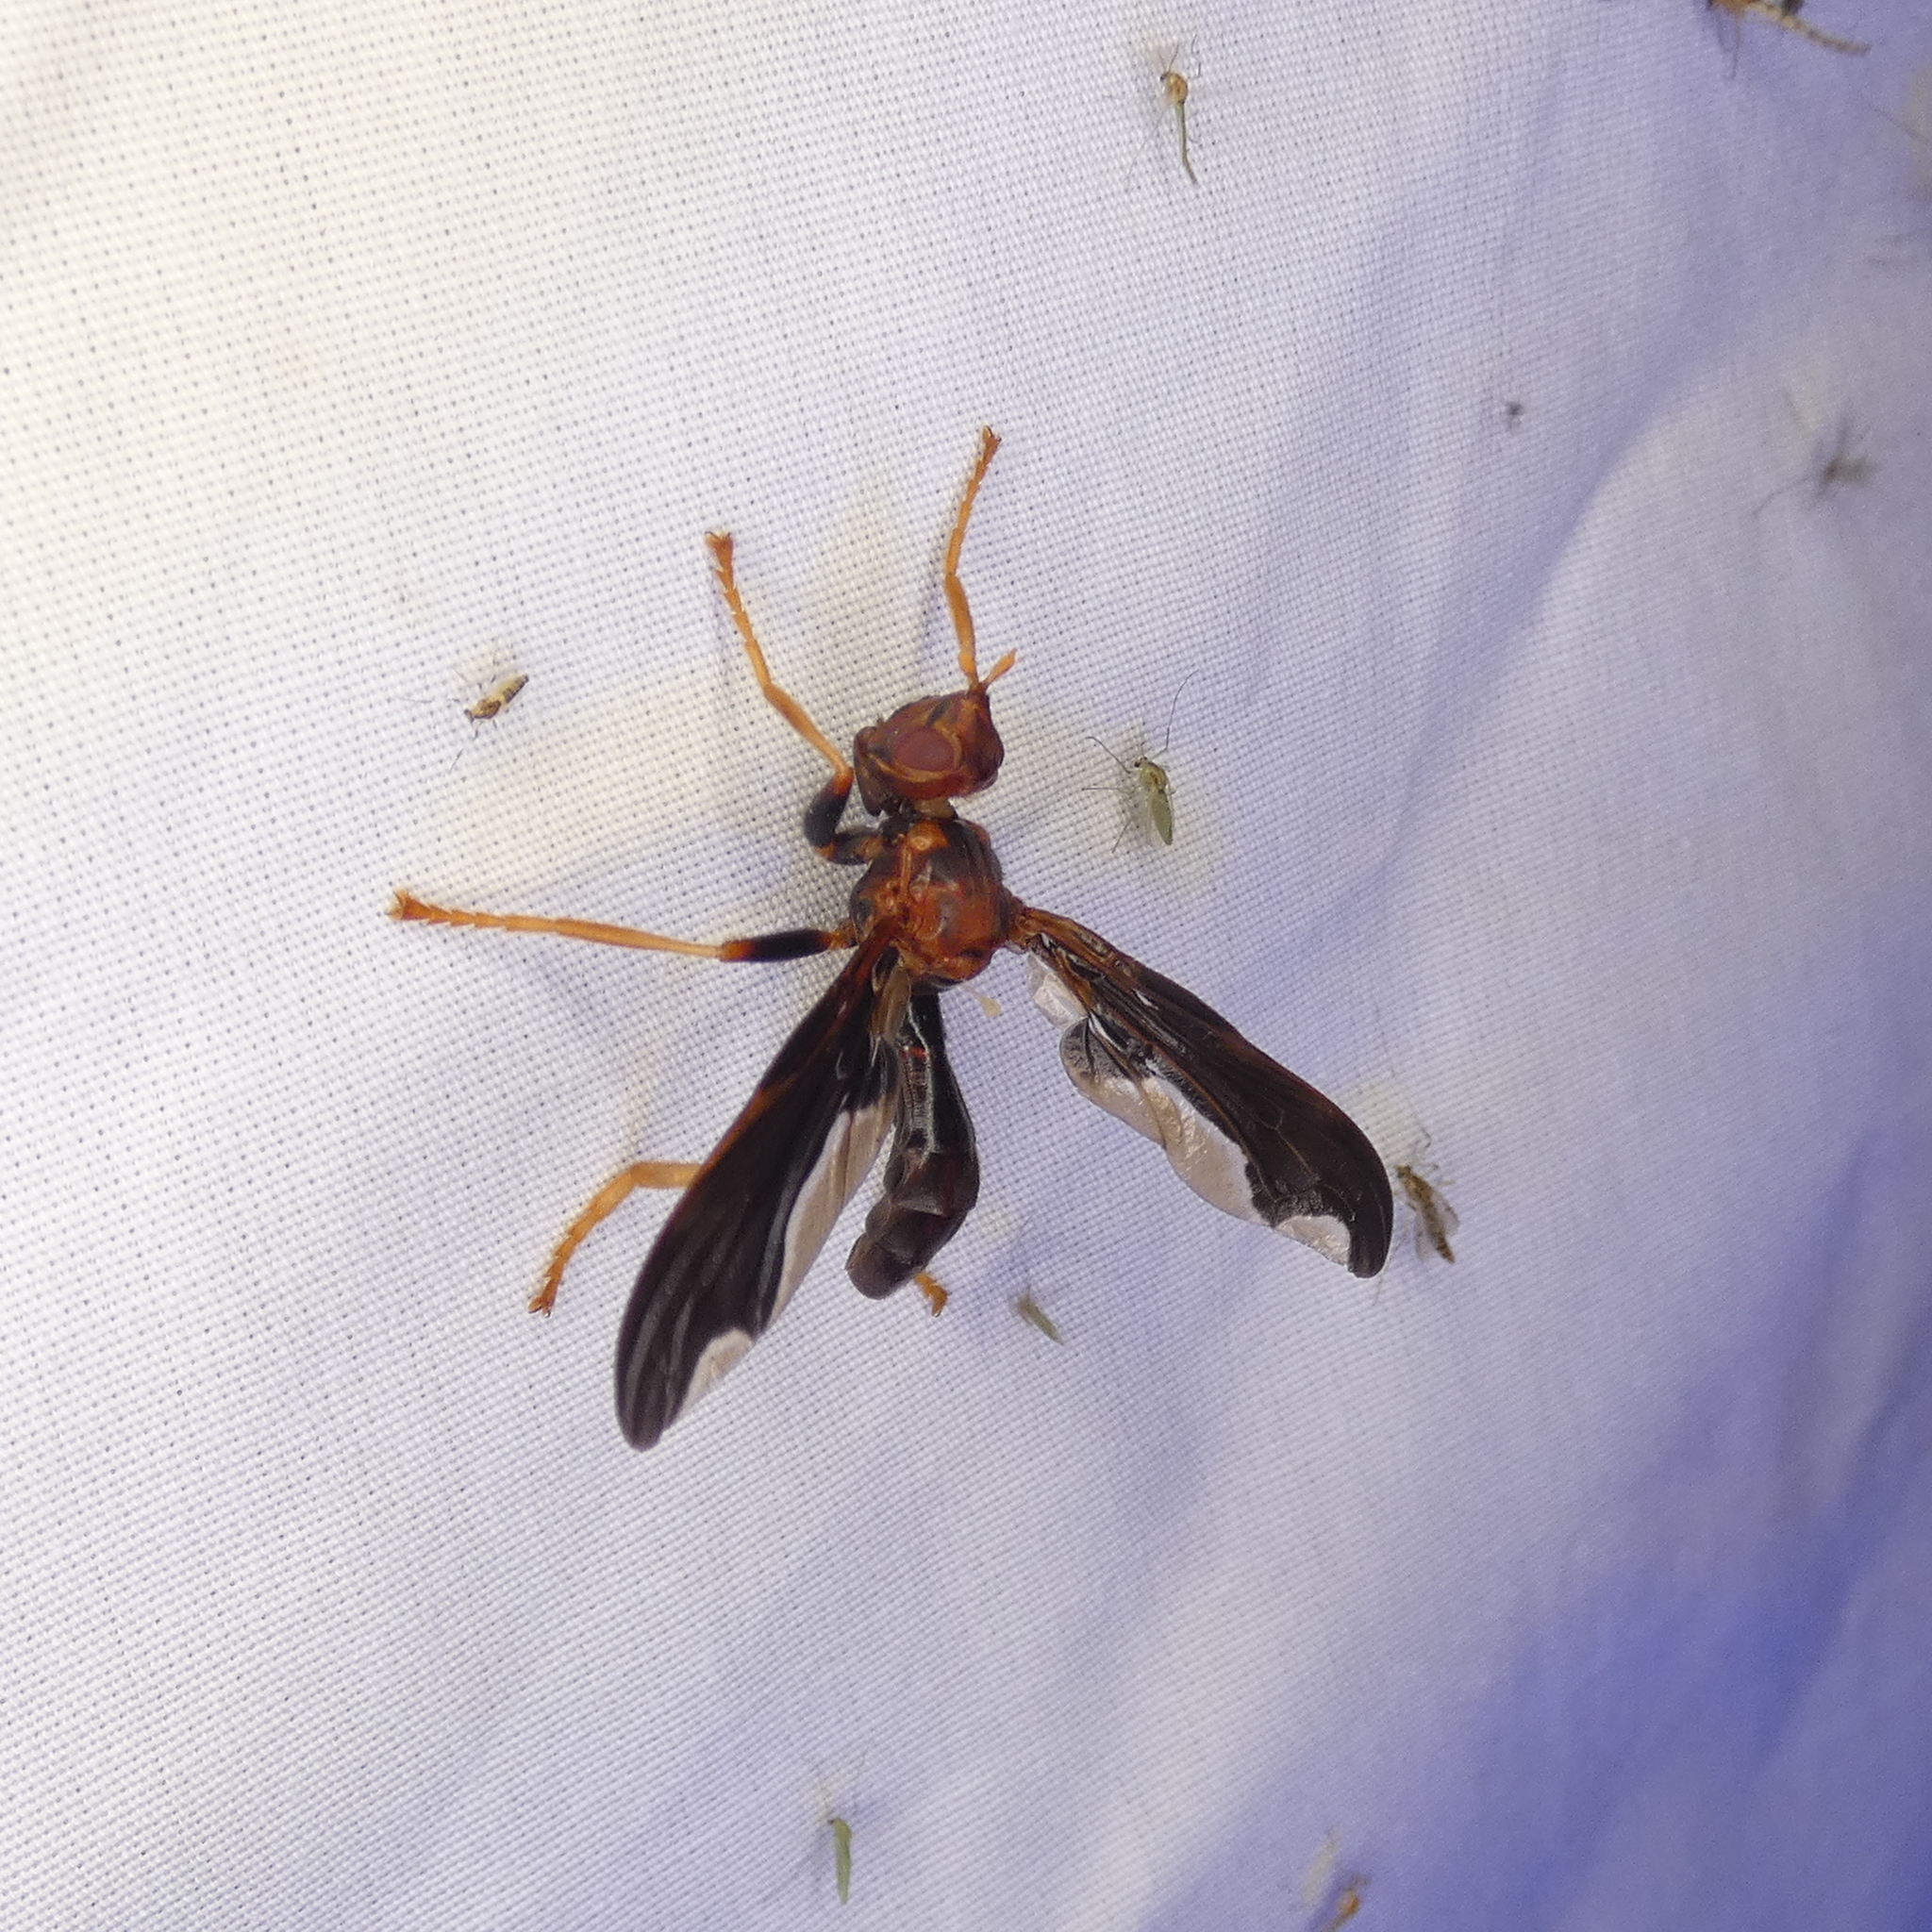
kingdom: Animalia
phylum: Arthropoda
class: Insecta
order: Diptera
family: Pyrgotidae
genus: Pyrgota
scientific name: Pyrgota undata
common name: Waved light fly
